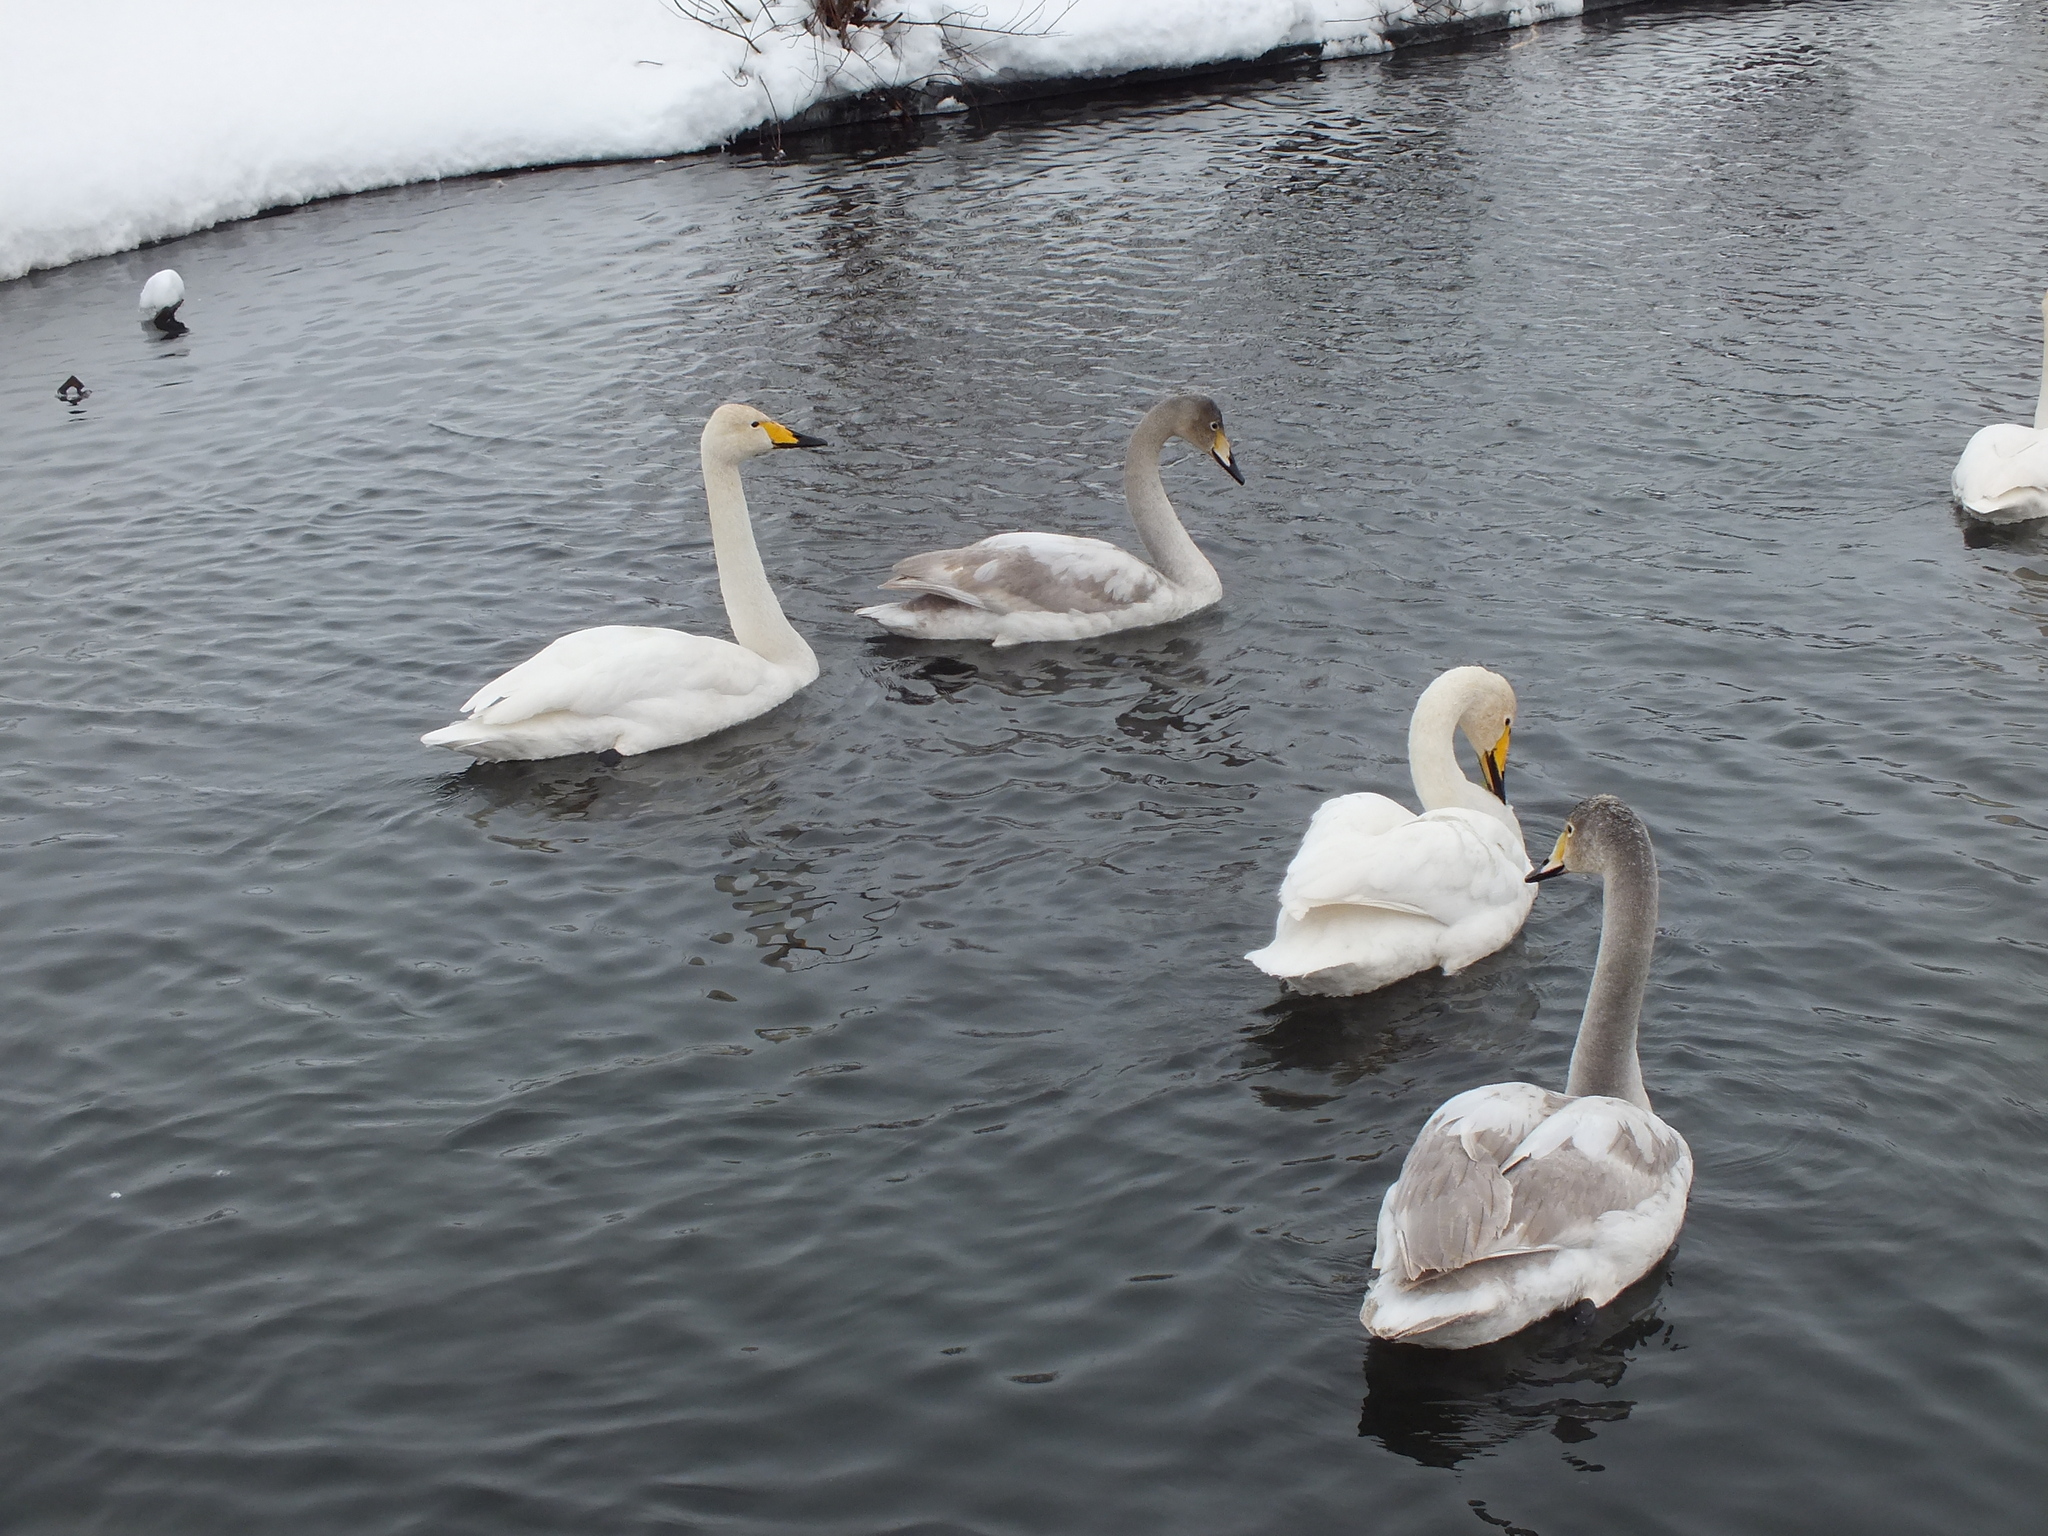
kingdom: Animalia
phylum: Chordata
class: Aves
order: Anseriformes
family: Anatidae
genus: Cygnus
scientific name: Cygnus cygnus
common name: Whooper swan
